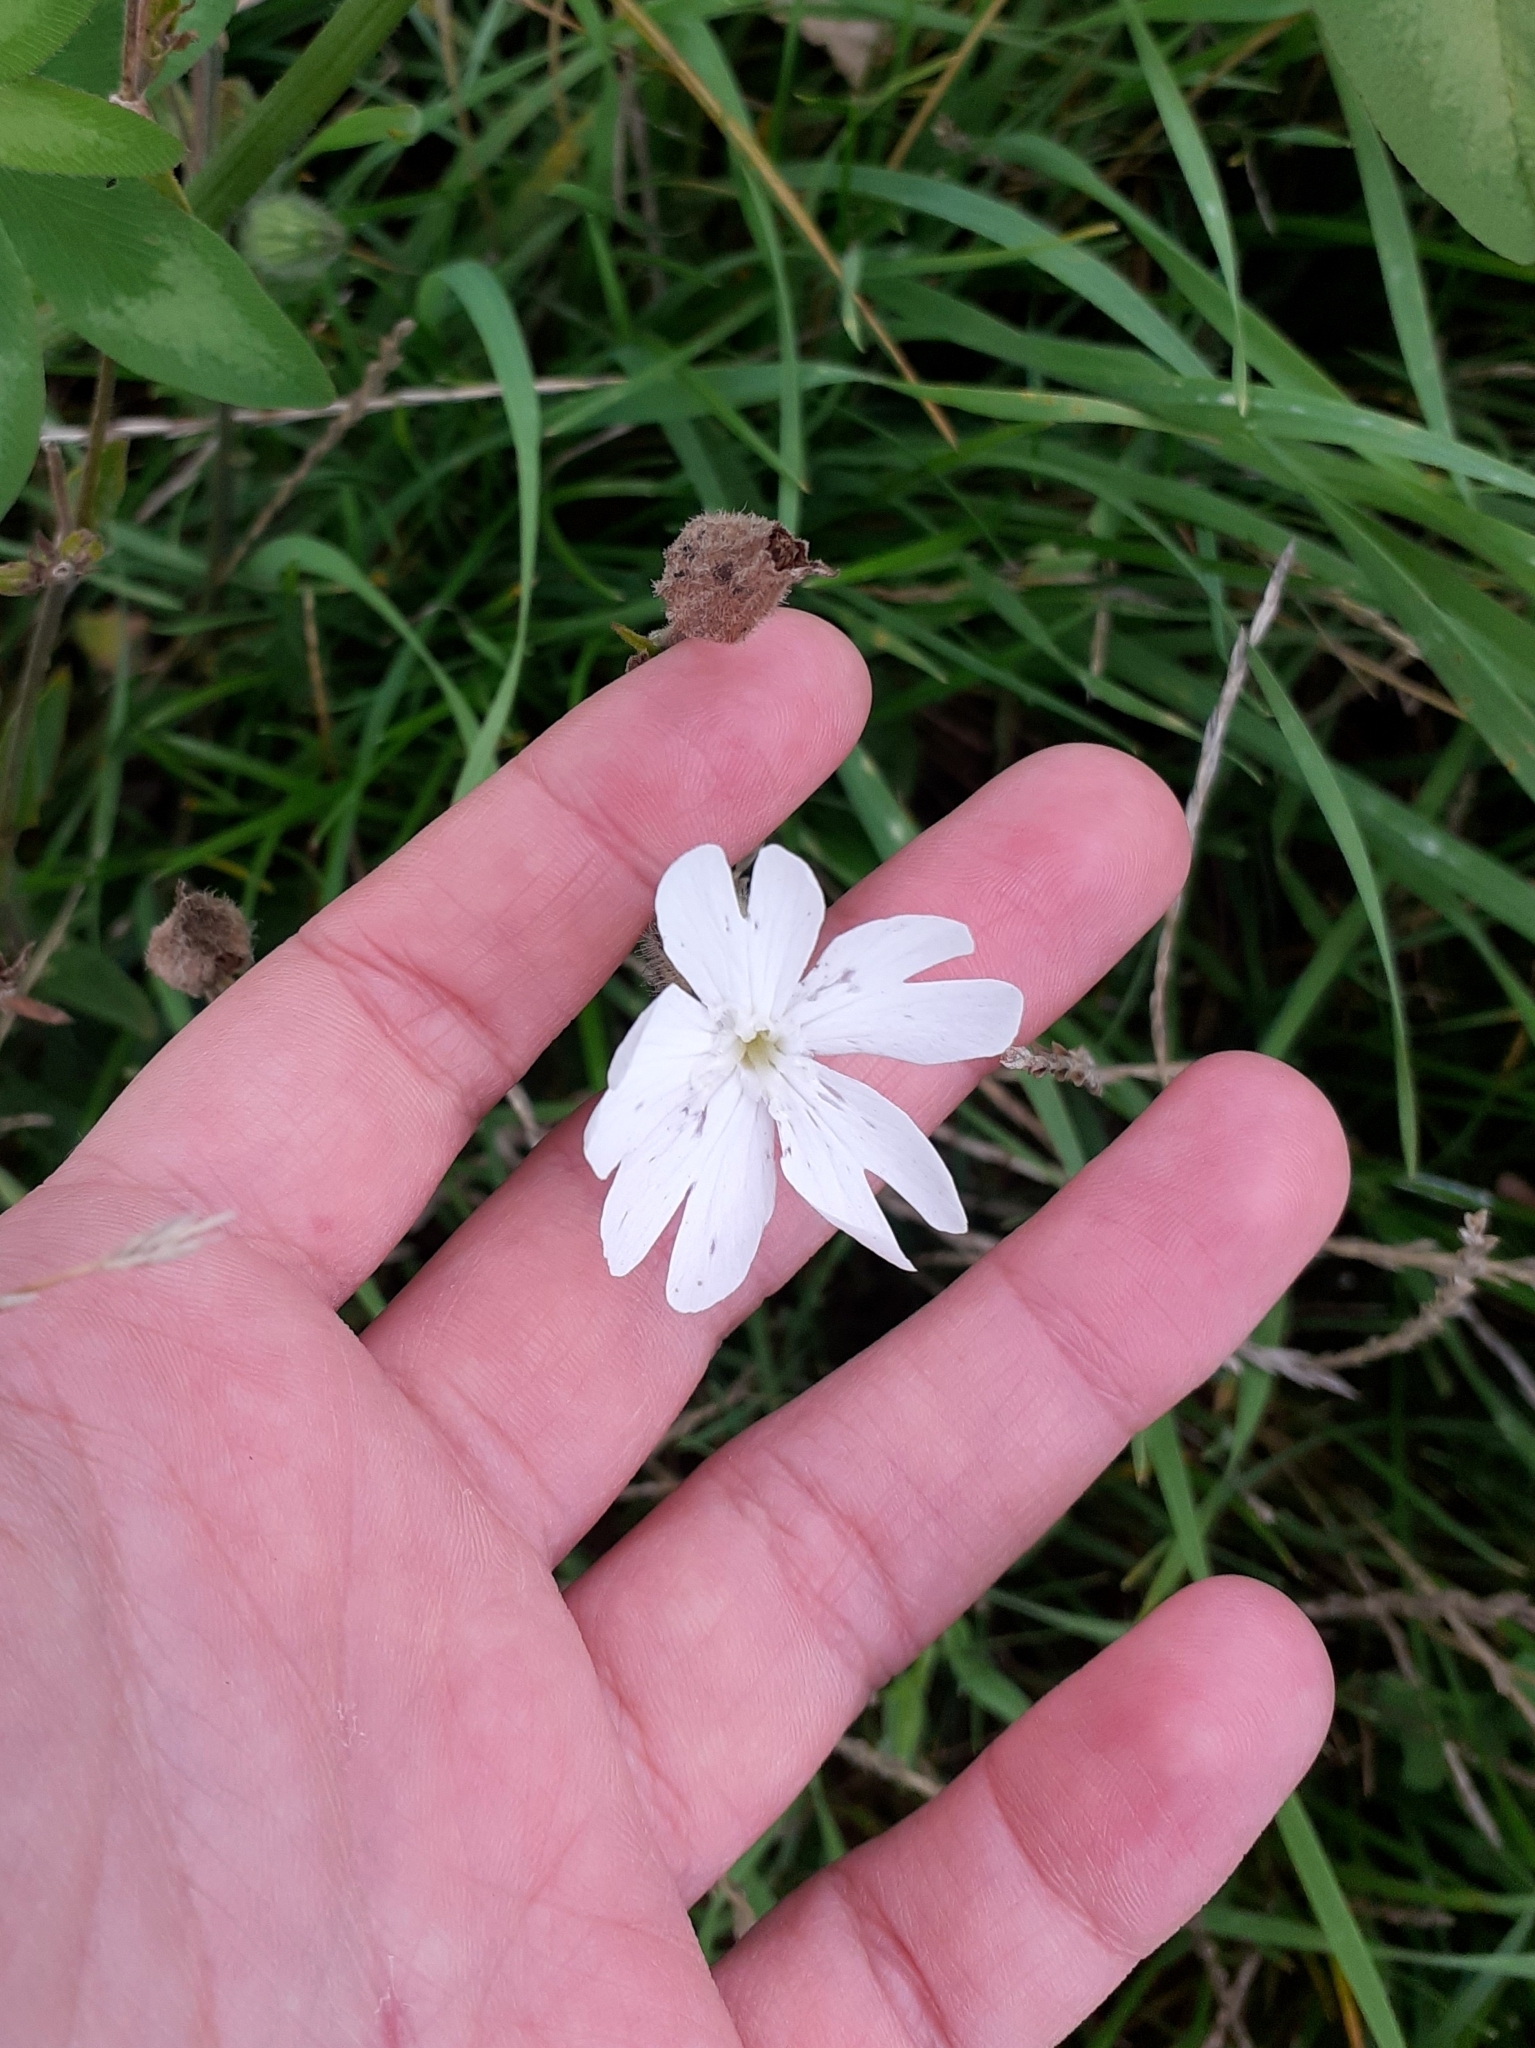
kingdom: Plantae
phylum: Tracheophyta
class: Magnoliopsida
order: Caryophyllales
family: Caryophyllaceae
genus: Silene
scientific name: Silene latifolia
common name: White campion
